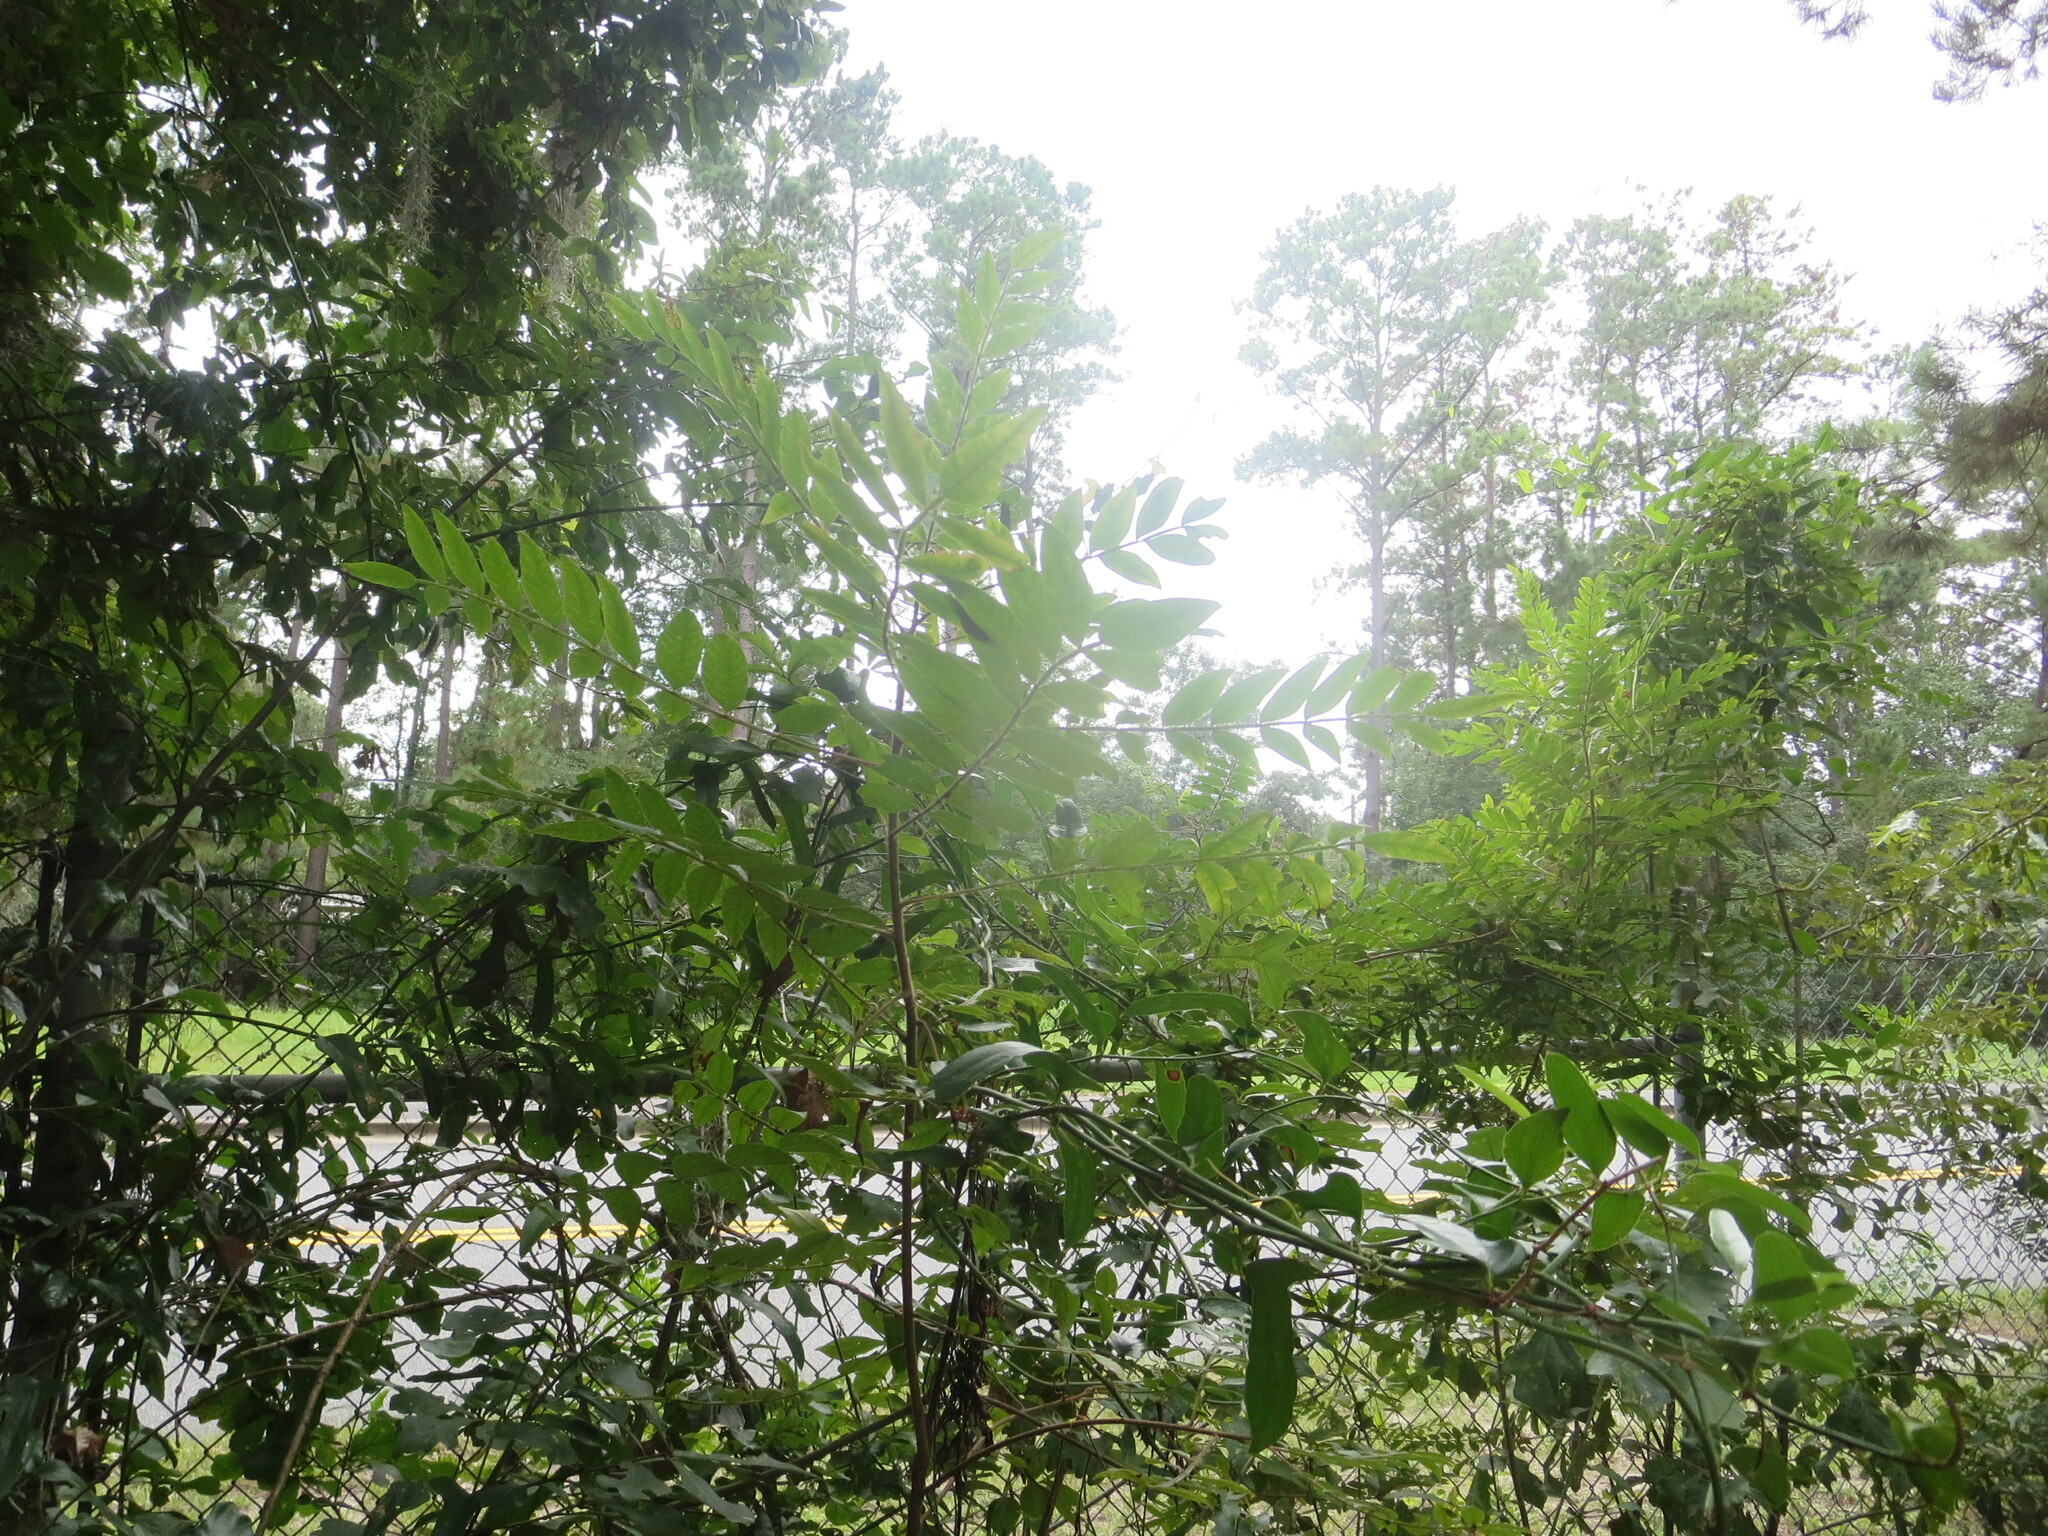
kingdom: Plantae
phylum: Tracheophyta
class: Magnoliopsida
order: Sapindales
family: Anacardiaceae
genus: Rhus
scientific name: Rhus copallina
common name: Shining sumac
